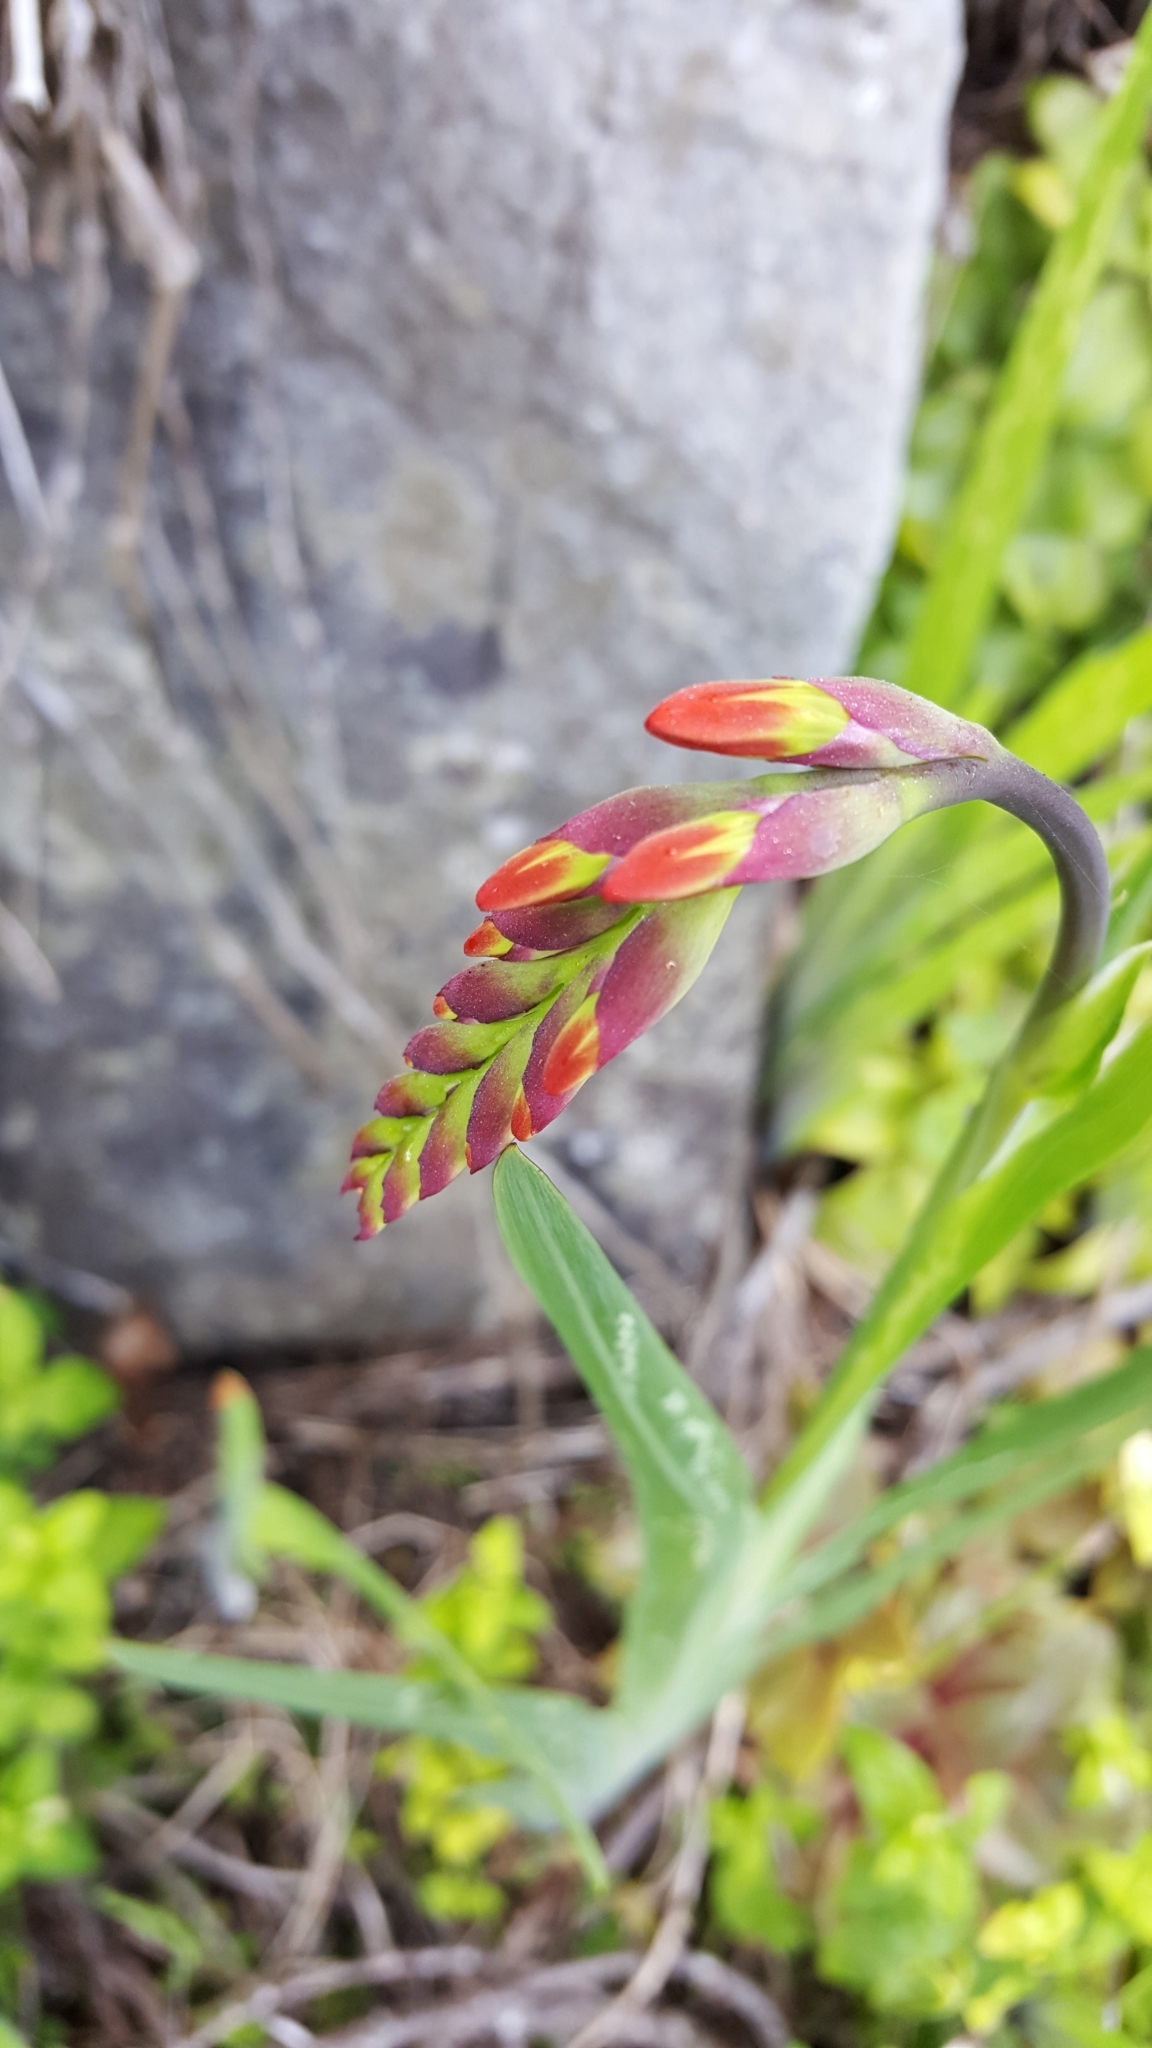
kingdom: Plantae
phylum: Tracheophyta
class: Liliopsida
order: Asparagales
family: Iridaceae
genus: Chasmanthe
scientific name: Chasmanthe aethiopica
